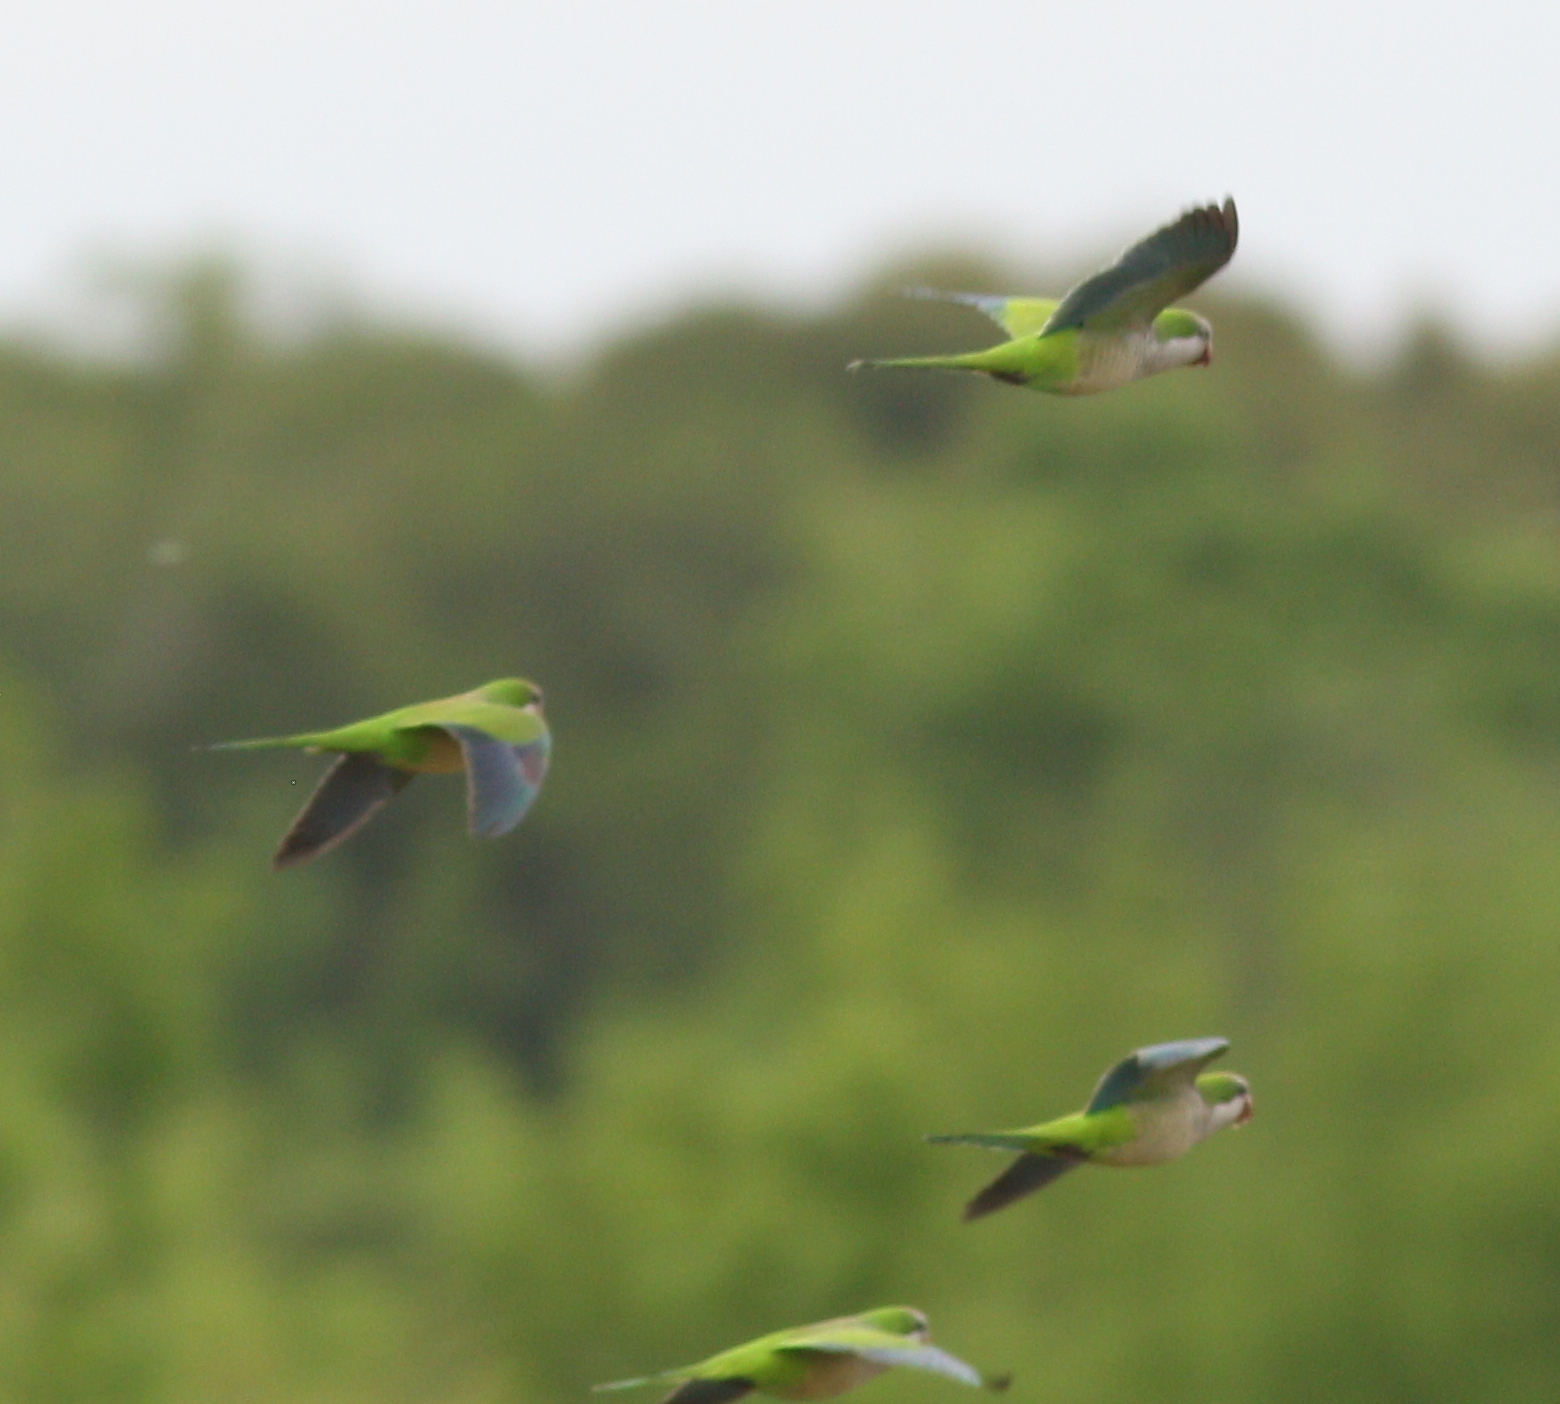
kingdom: Animalia
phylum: Chordata
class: Aves
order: Psittaciformes
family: Psittacidae
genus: Myiopsitta
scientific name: Myiopsitta monachus
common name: Monk parakeet
